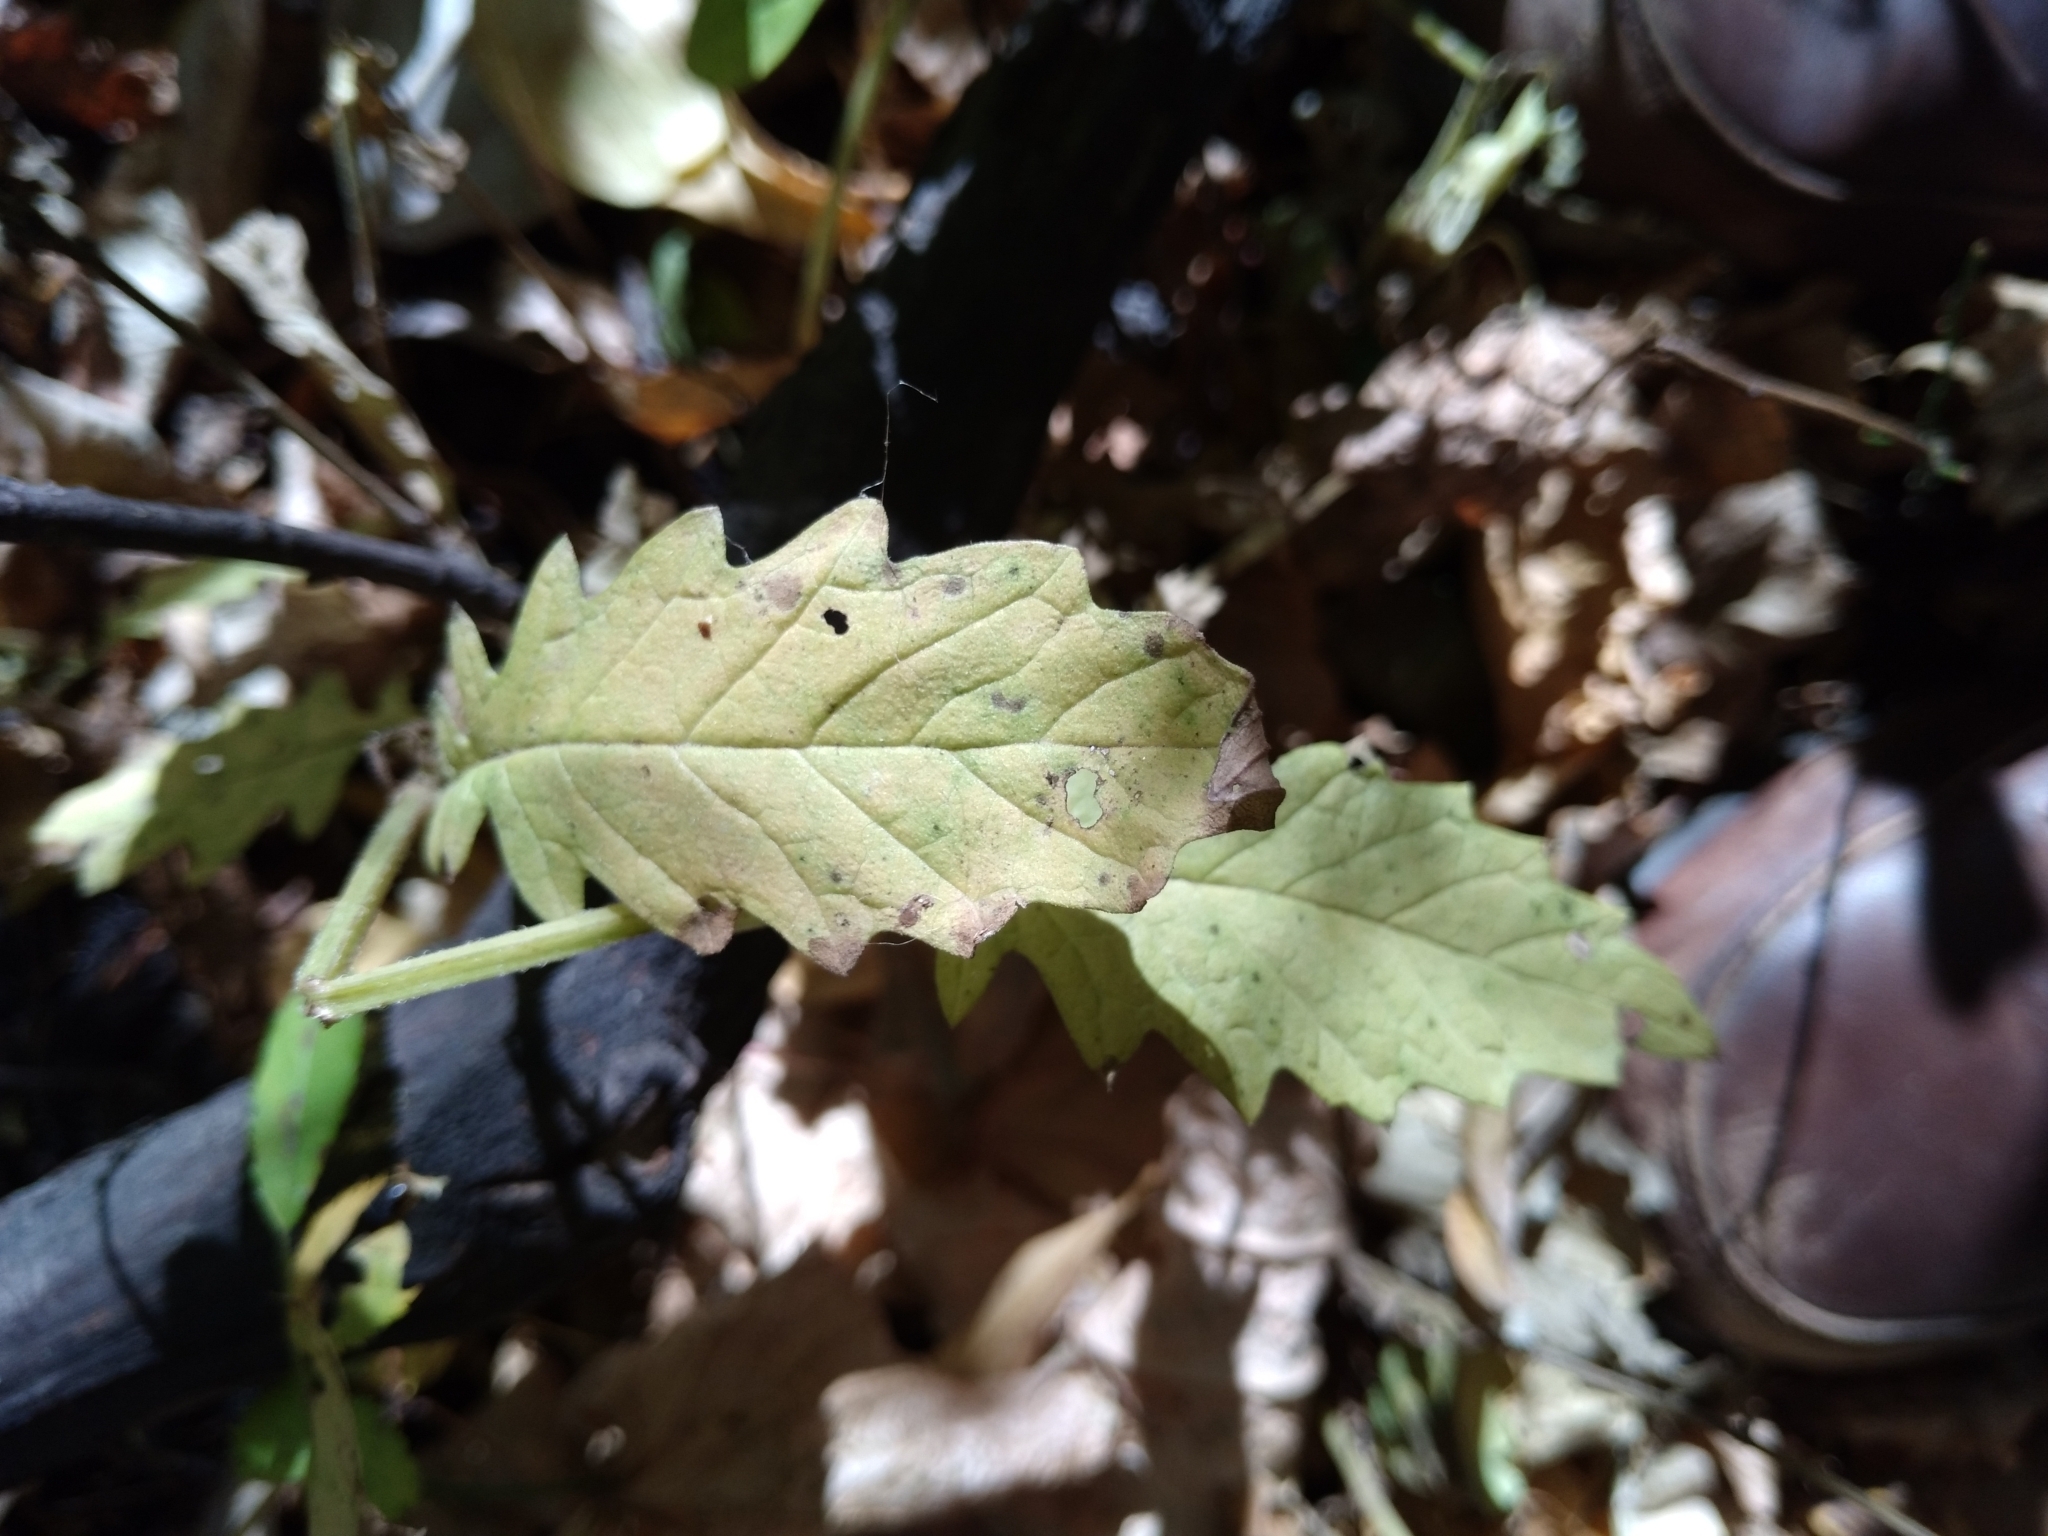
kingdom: Plantae
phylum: Tracheophyta
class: Magnoliopsida
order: Lamiales
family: Lamiaceae
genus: Lycopus
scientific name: Lycopus europaeus
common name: European bugleweed
